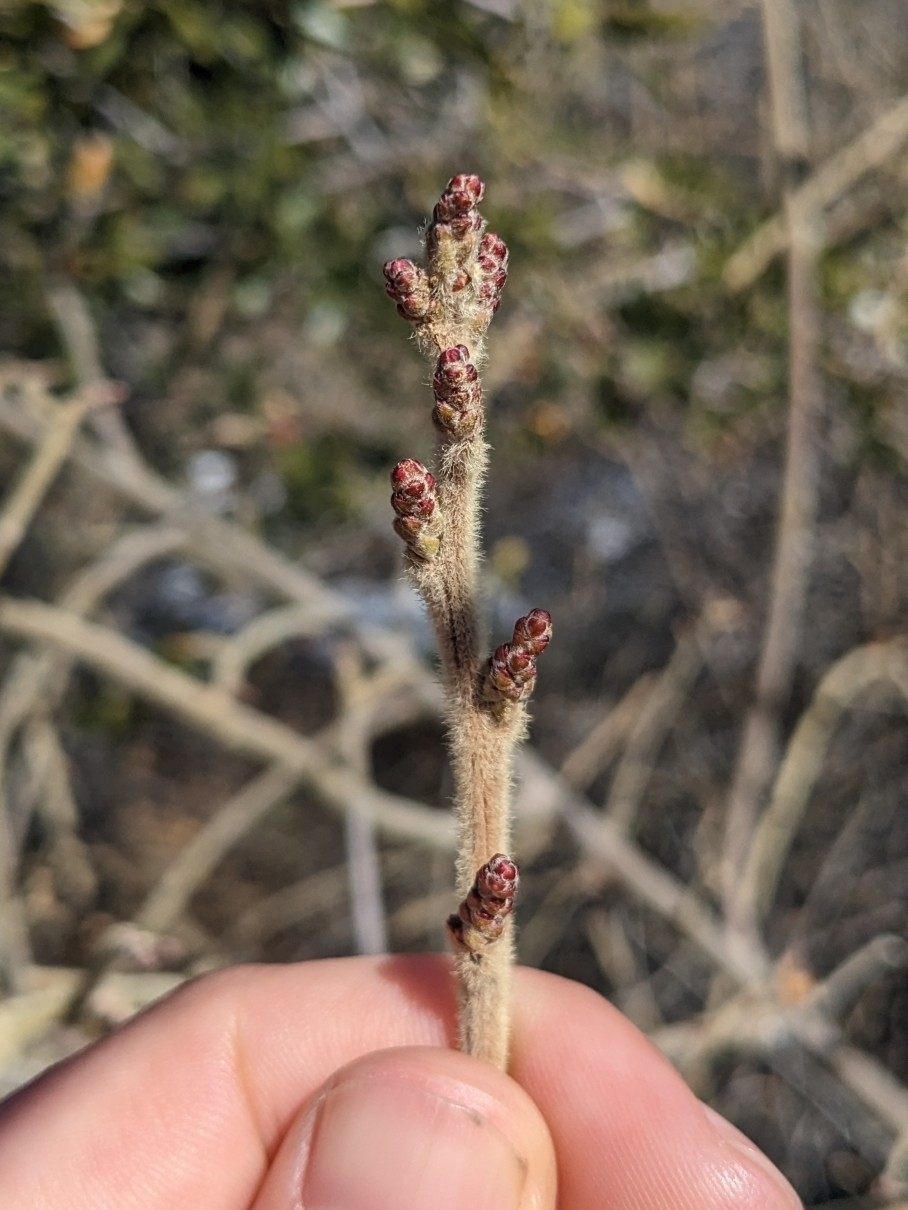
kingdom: Plantae
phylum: Tracheophyta
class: Magnoliopsida
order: Sapindales
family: Anacardiaceae
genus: Rhus
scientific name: Rhus aromatica
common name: Aromatic sumac
